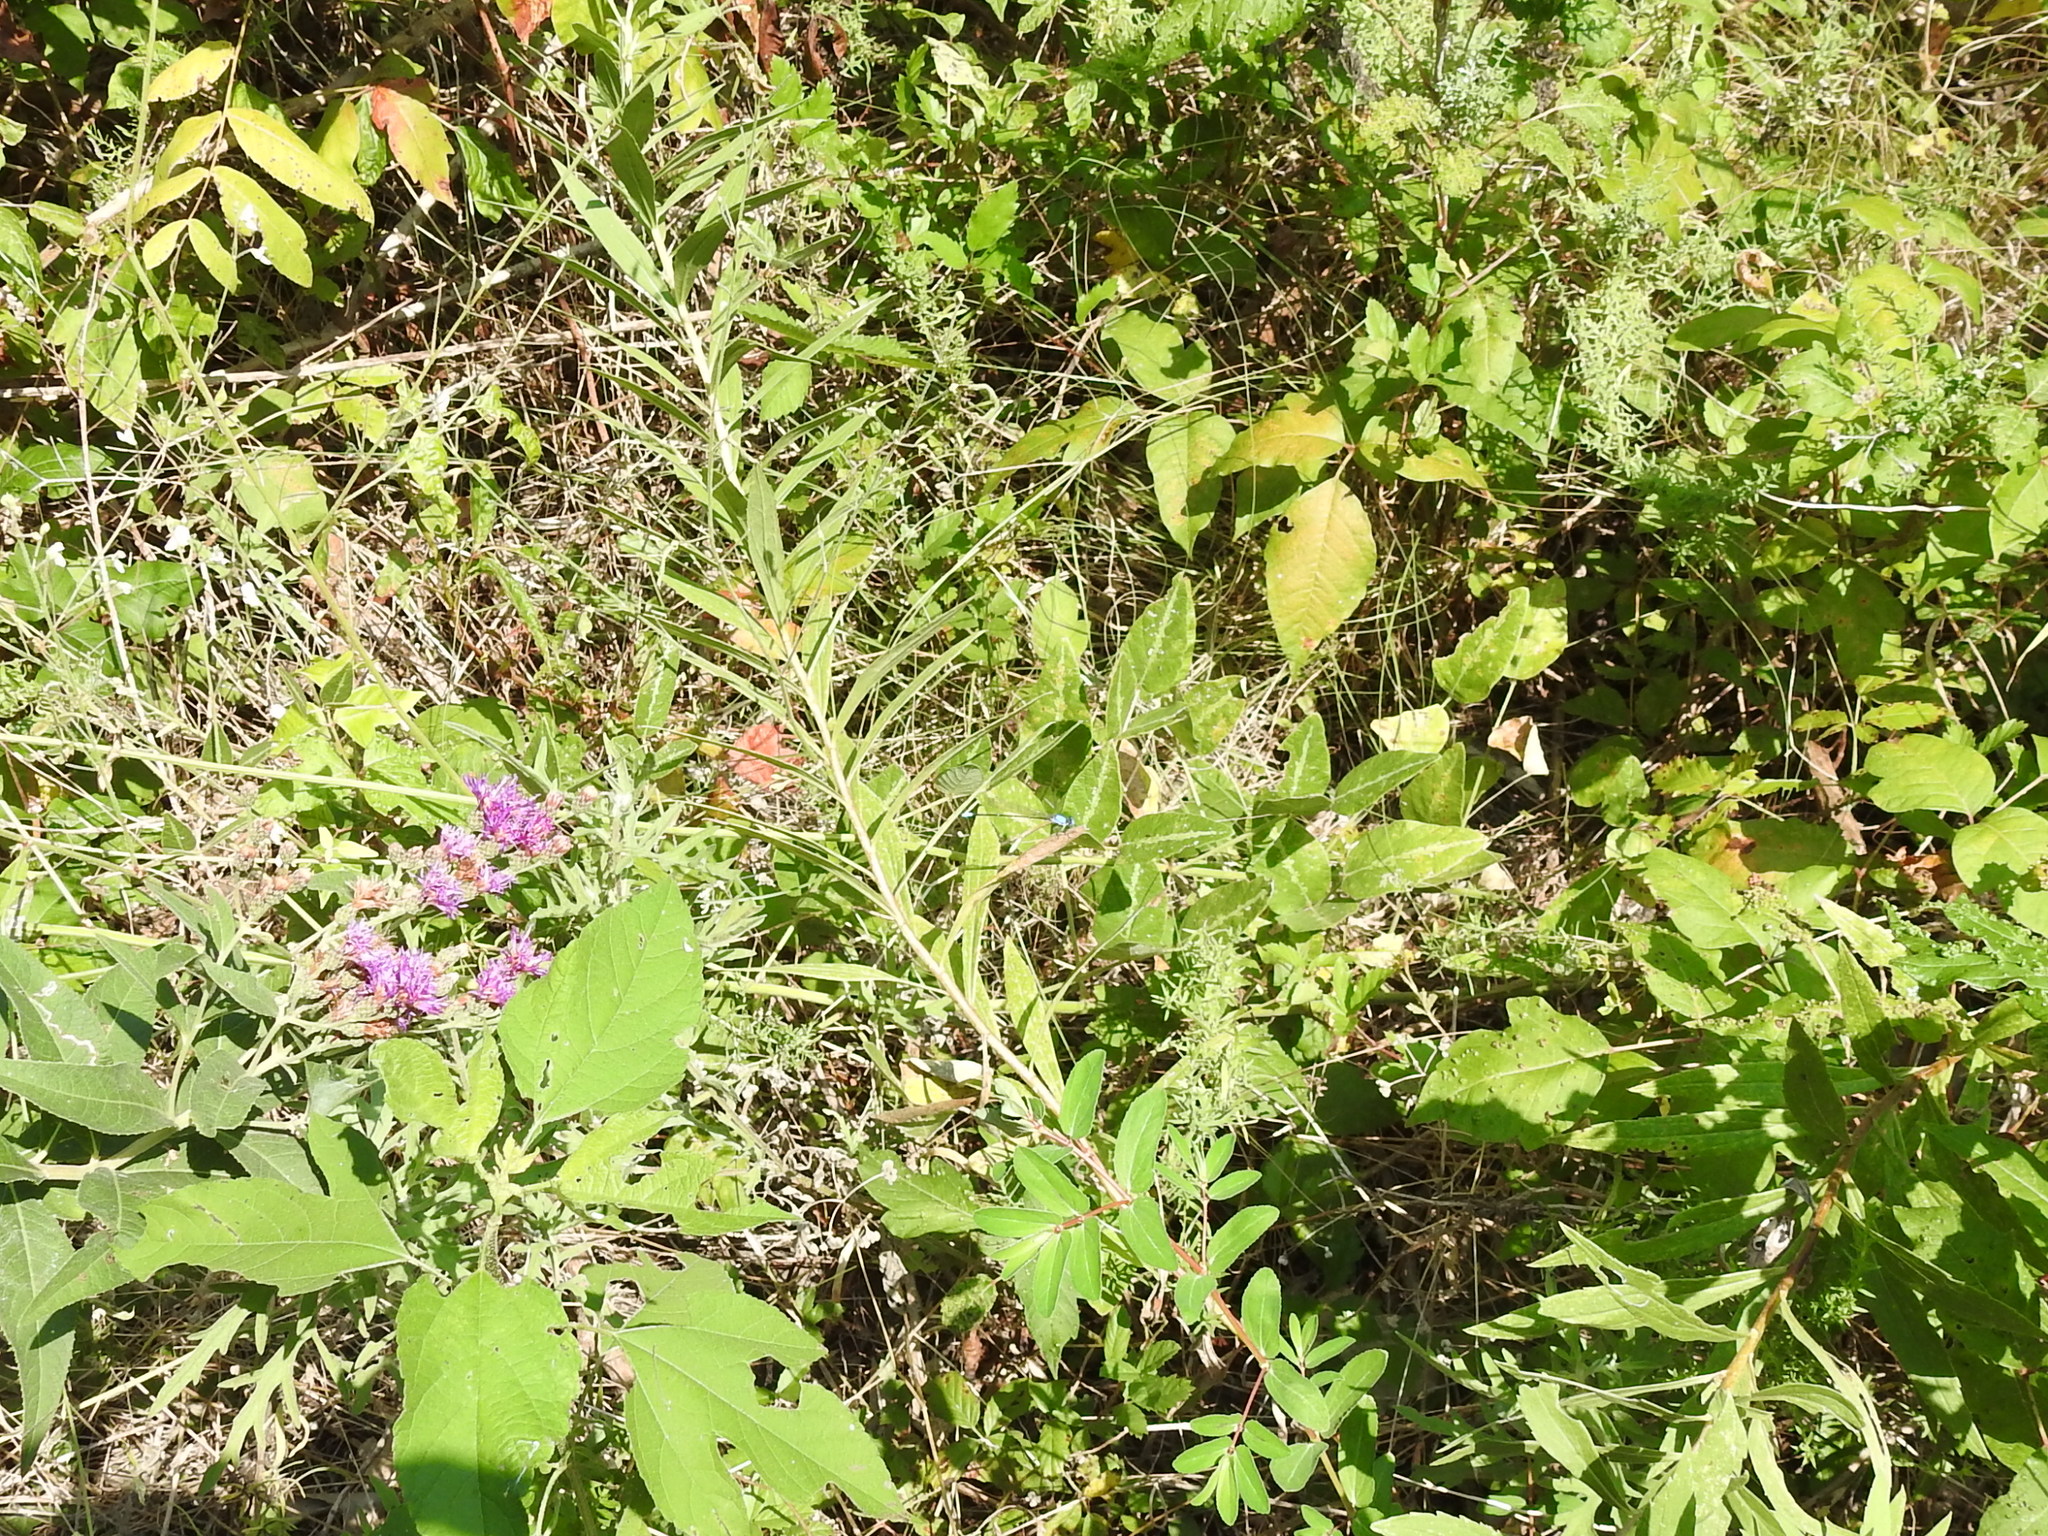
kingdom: Plantae
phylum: Tracheophyta
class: Magnoliopsida
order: Fabales
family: Fabaceae
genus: Desmodium
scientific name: Desmodium tweedyi
